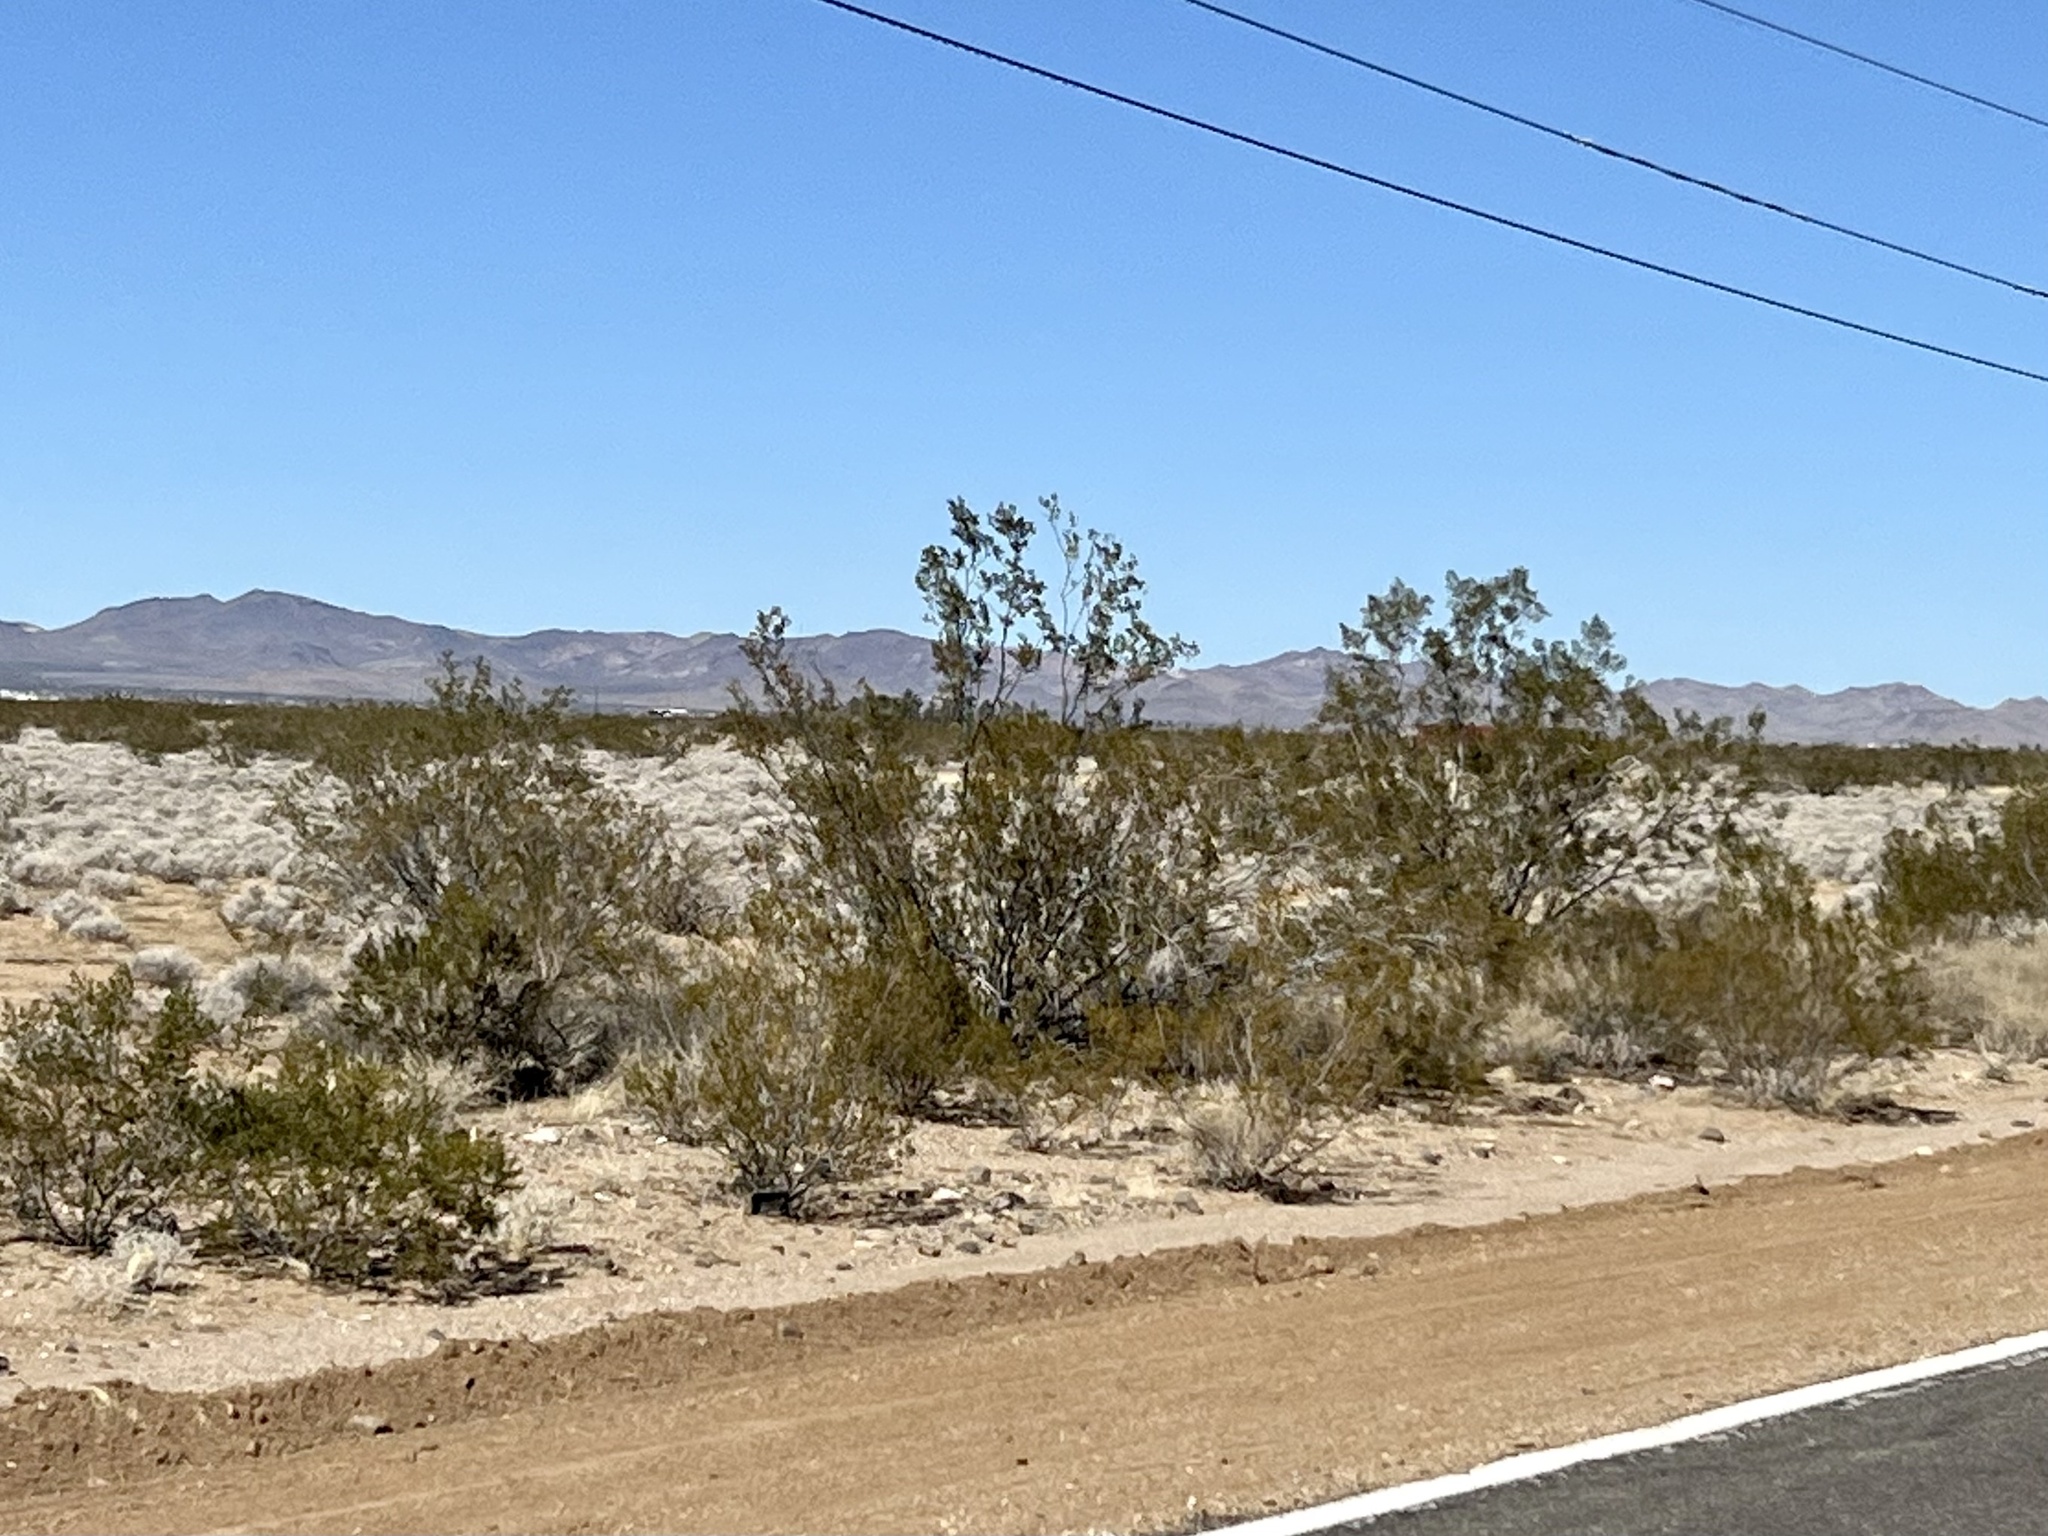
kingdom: Plantae
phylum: Tracheophyta
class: Magnoliopsida
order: Zygophyllales
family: Zygophyllaceae
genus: Larrea
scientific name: Larrea tridentata
